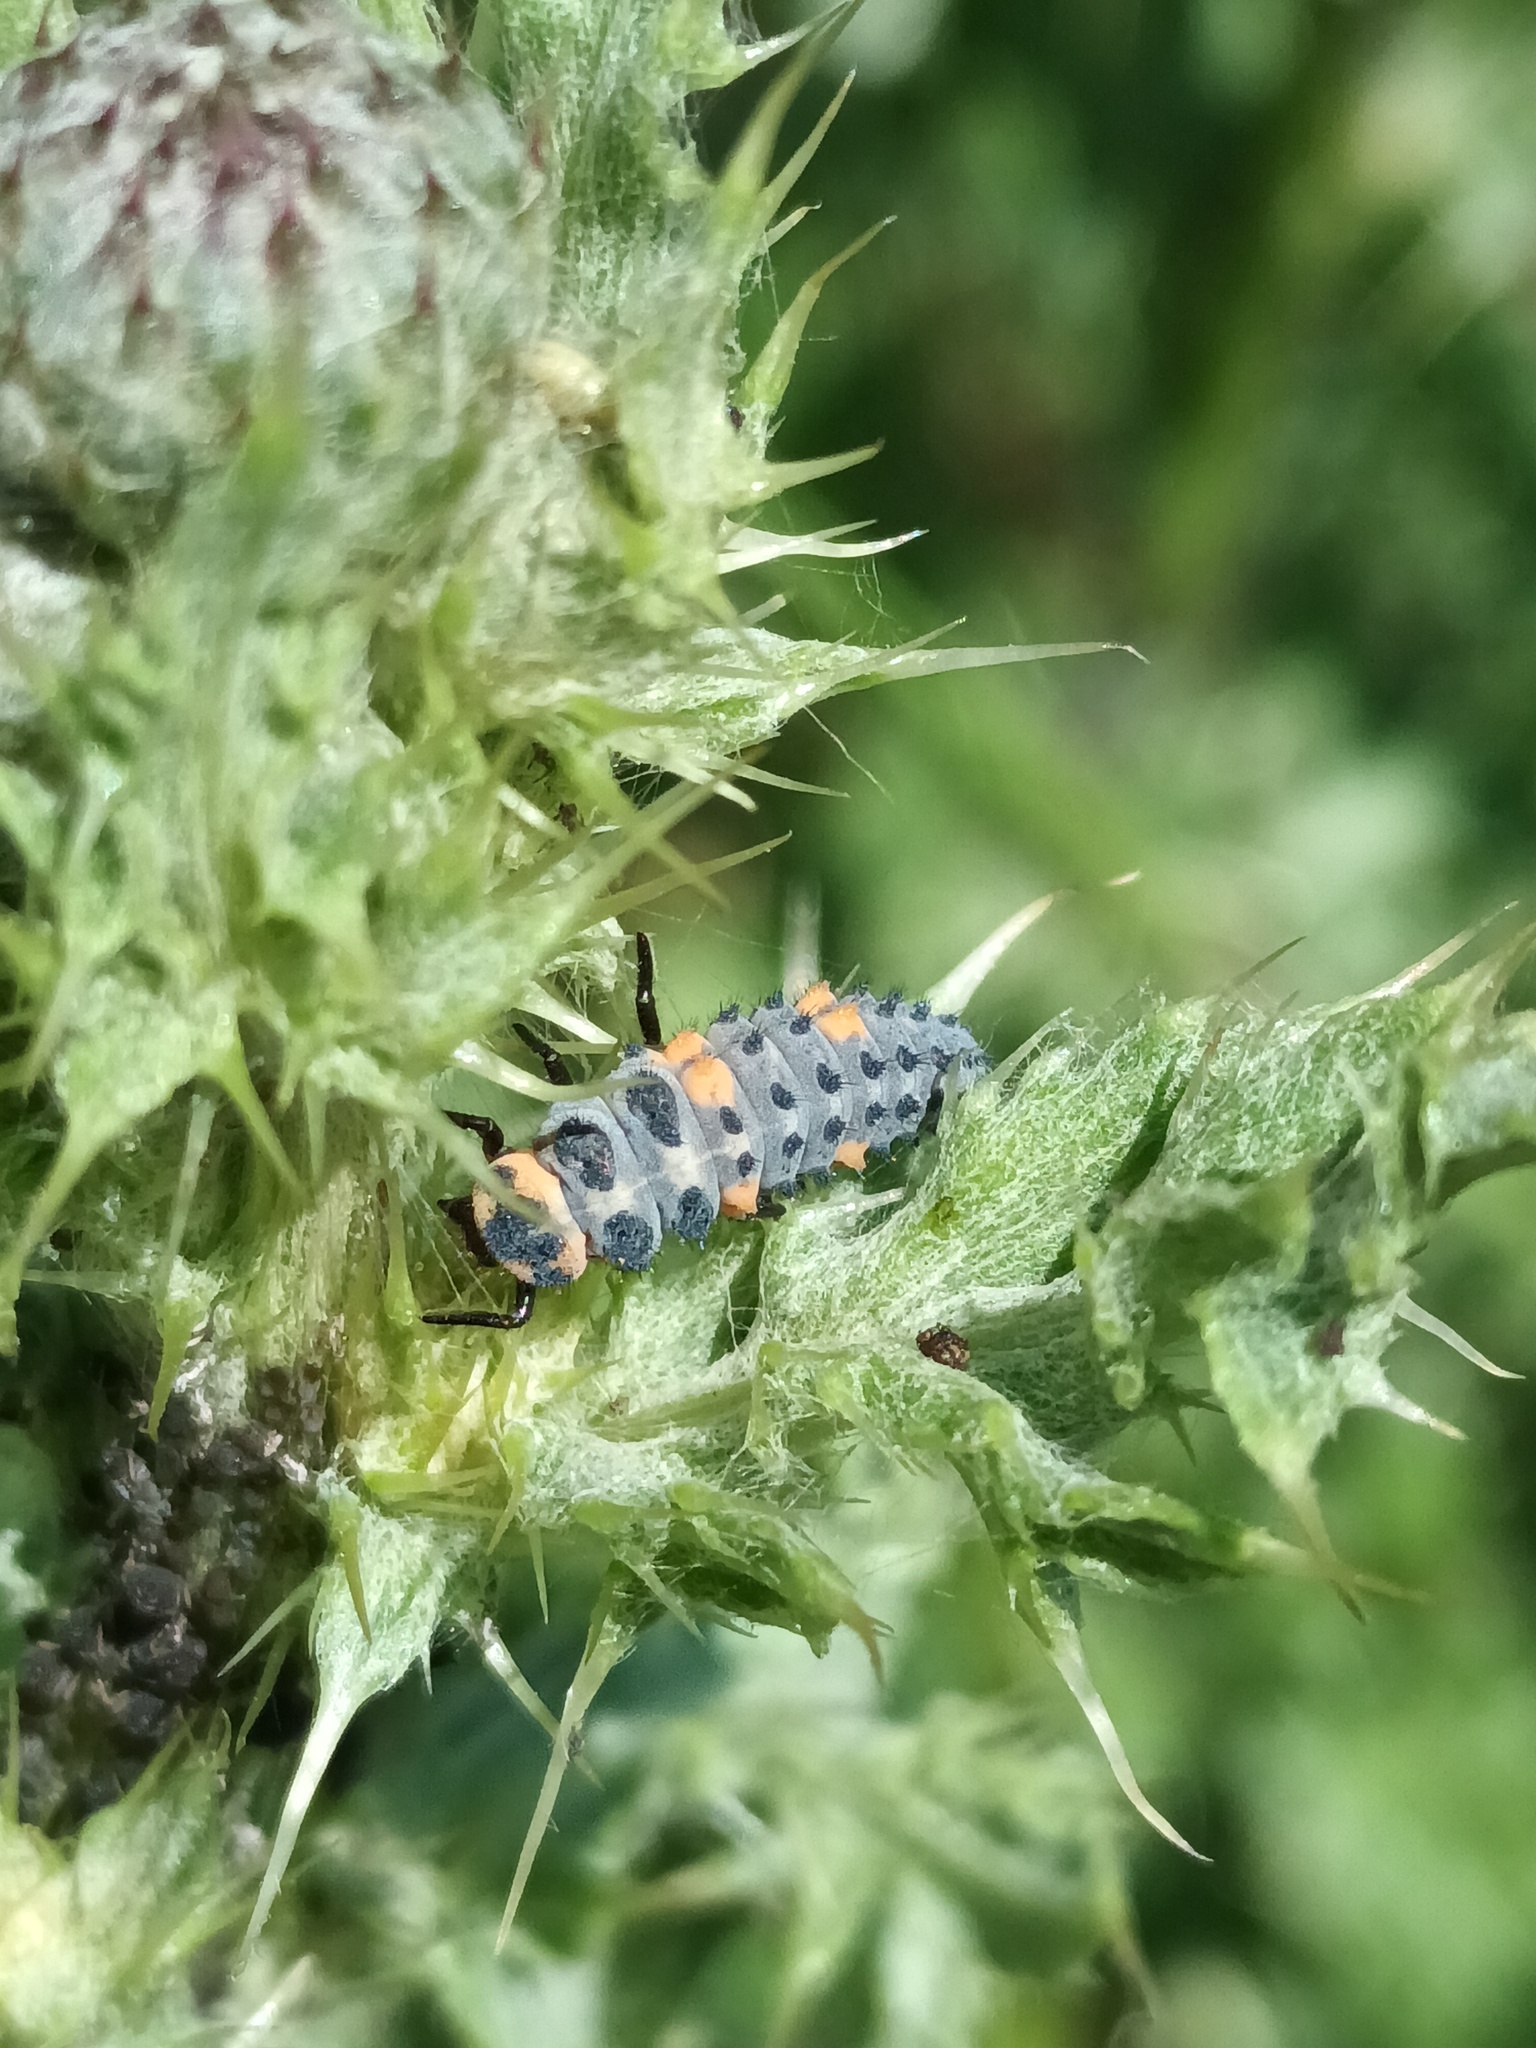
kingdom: Animalia
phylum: Arthropoda
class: Insecta
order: Coleoptera
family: Coccinellidae
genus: Coccinella
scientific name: Coccinella septempunctata
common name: Sevenspotted lady beetle
